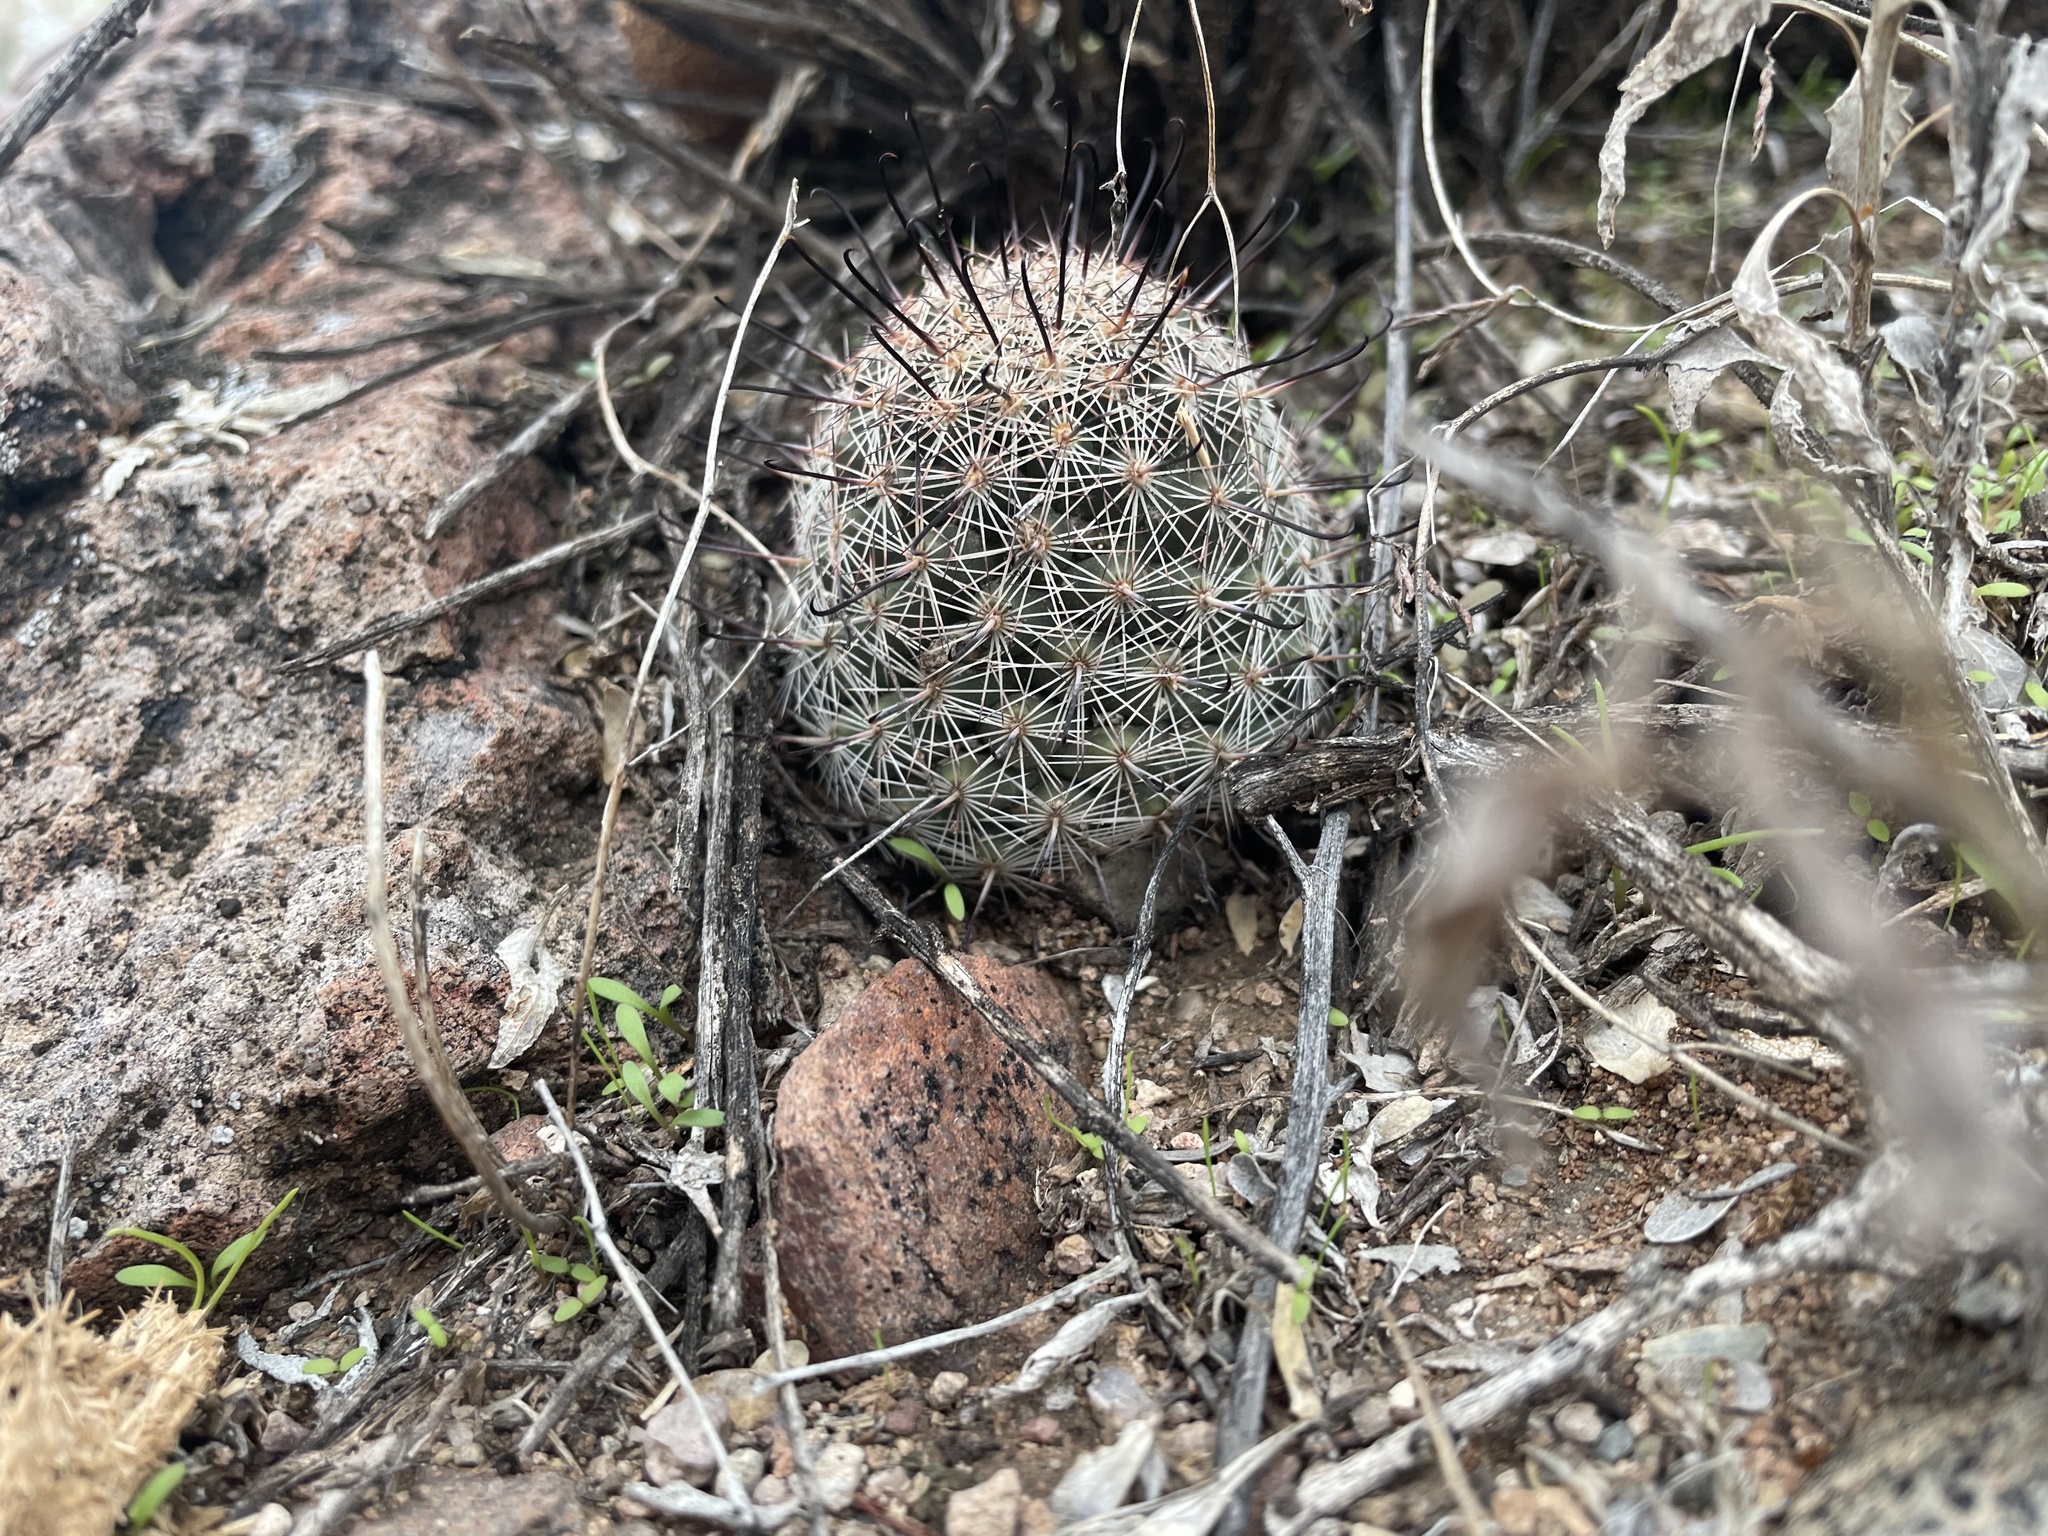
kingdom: Plantae
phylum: Tracheophyta
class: Magnoliopsida
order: Caryophyllales
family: Cactaceae
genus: Cochemiea
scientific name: Cochemiea grahamii
